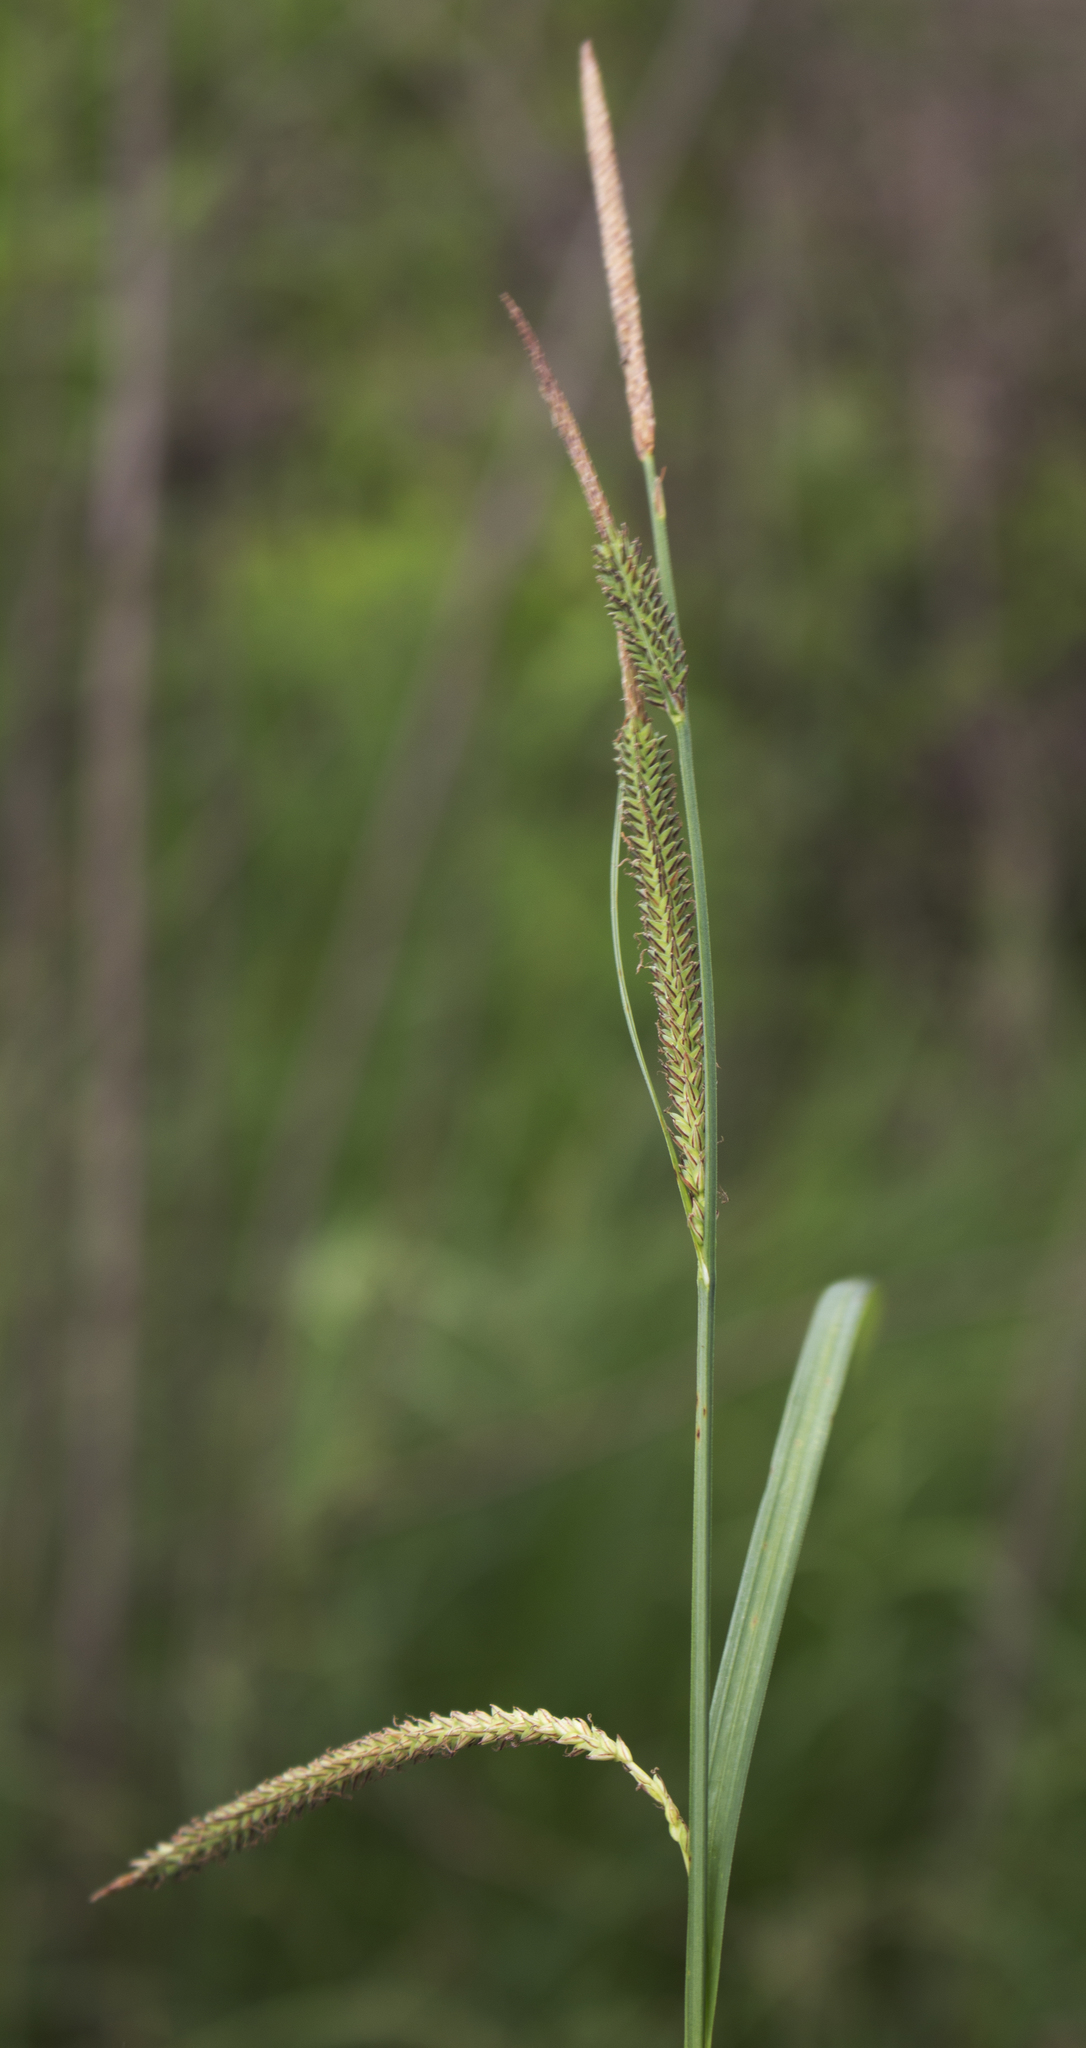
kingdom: Plantae
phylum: Tracheophyta
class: Liliopsida
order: Poales
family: Cyperaceae
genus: Carex
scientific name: Carex stricta
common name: Hummock sedge
